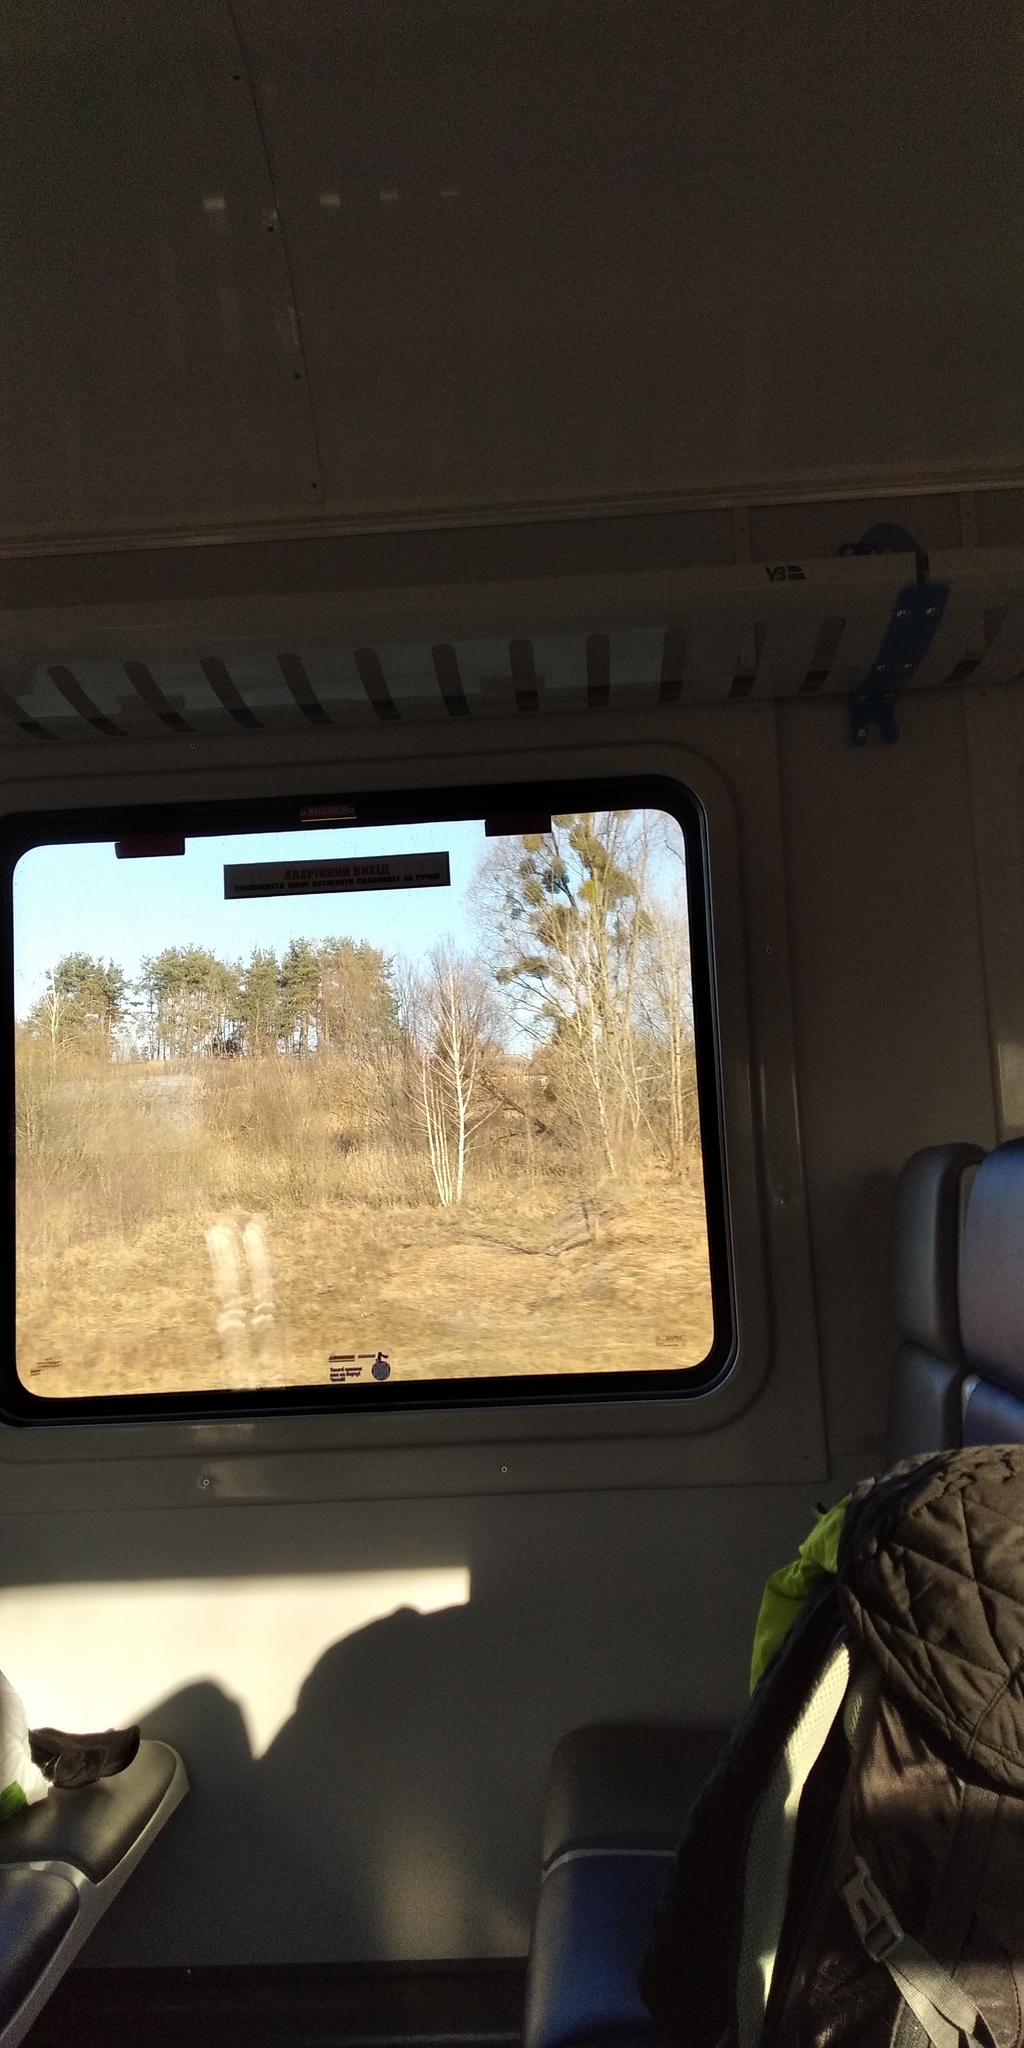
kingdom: Plantae
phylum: Tracheophyta
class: Magnoliopsida
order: Santalales
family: Viscaceae
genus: Viscum
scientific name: Viscum album
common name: Mistletoe
